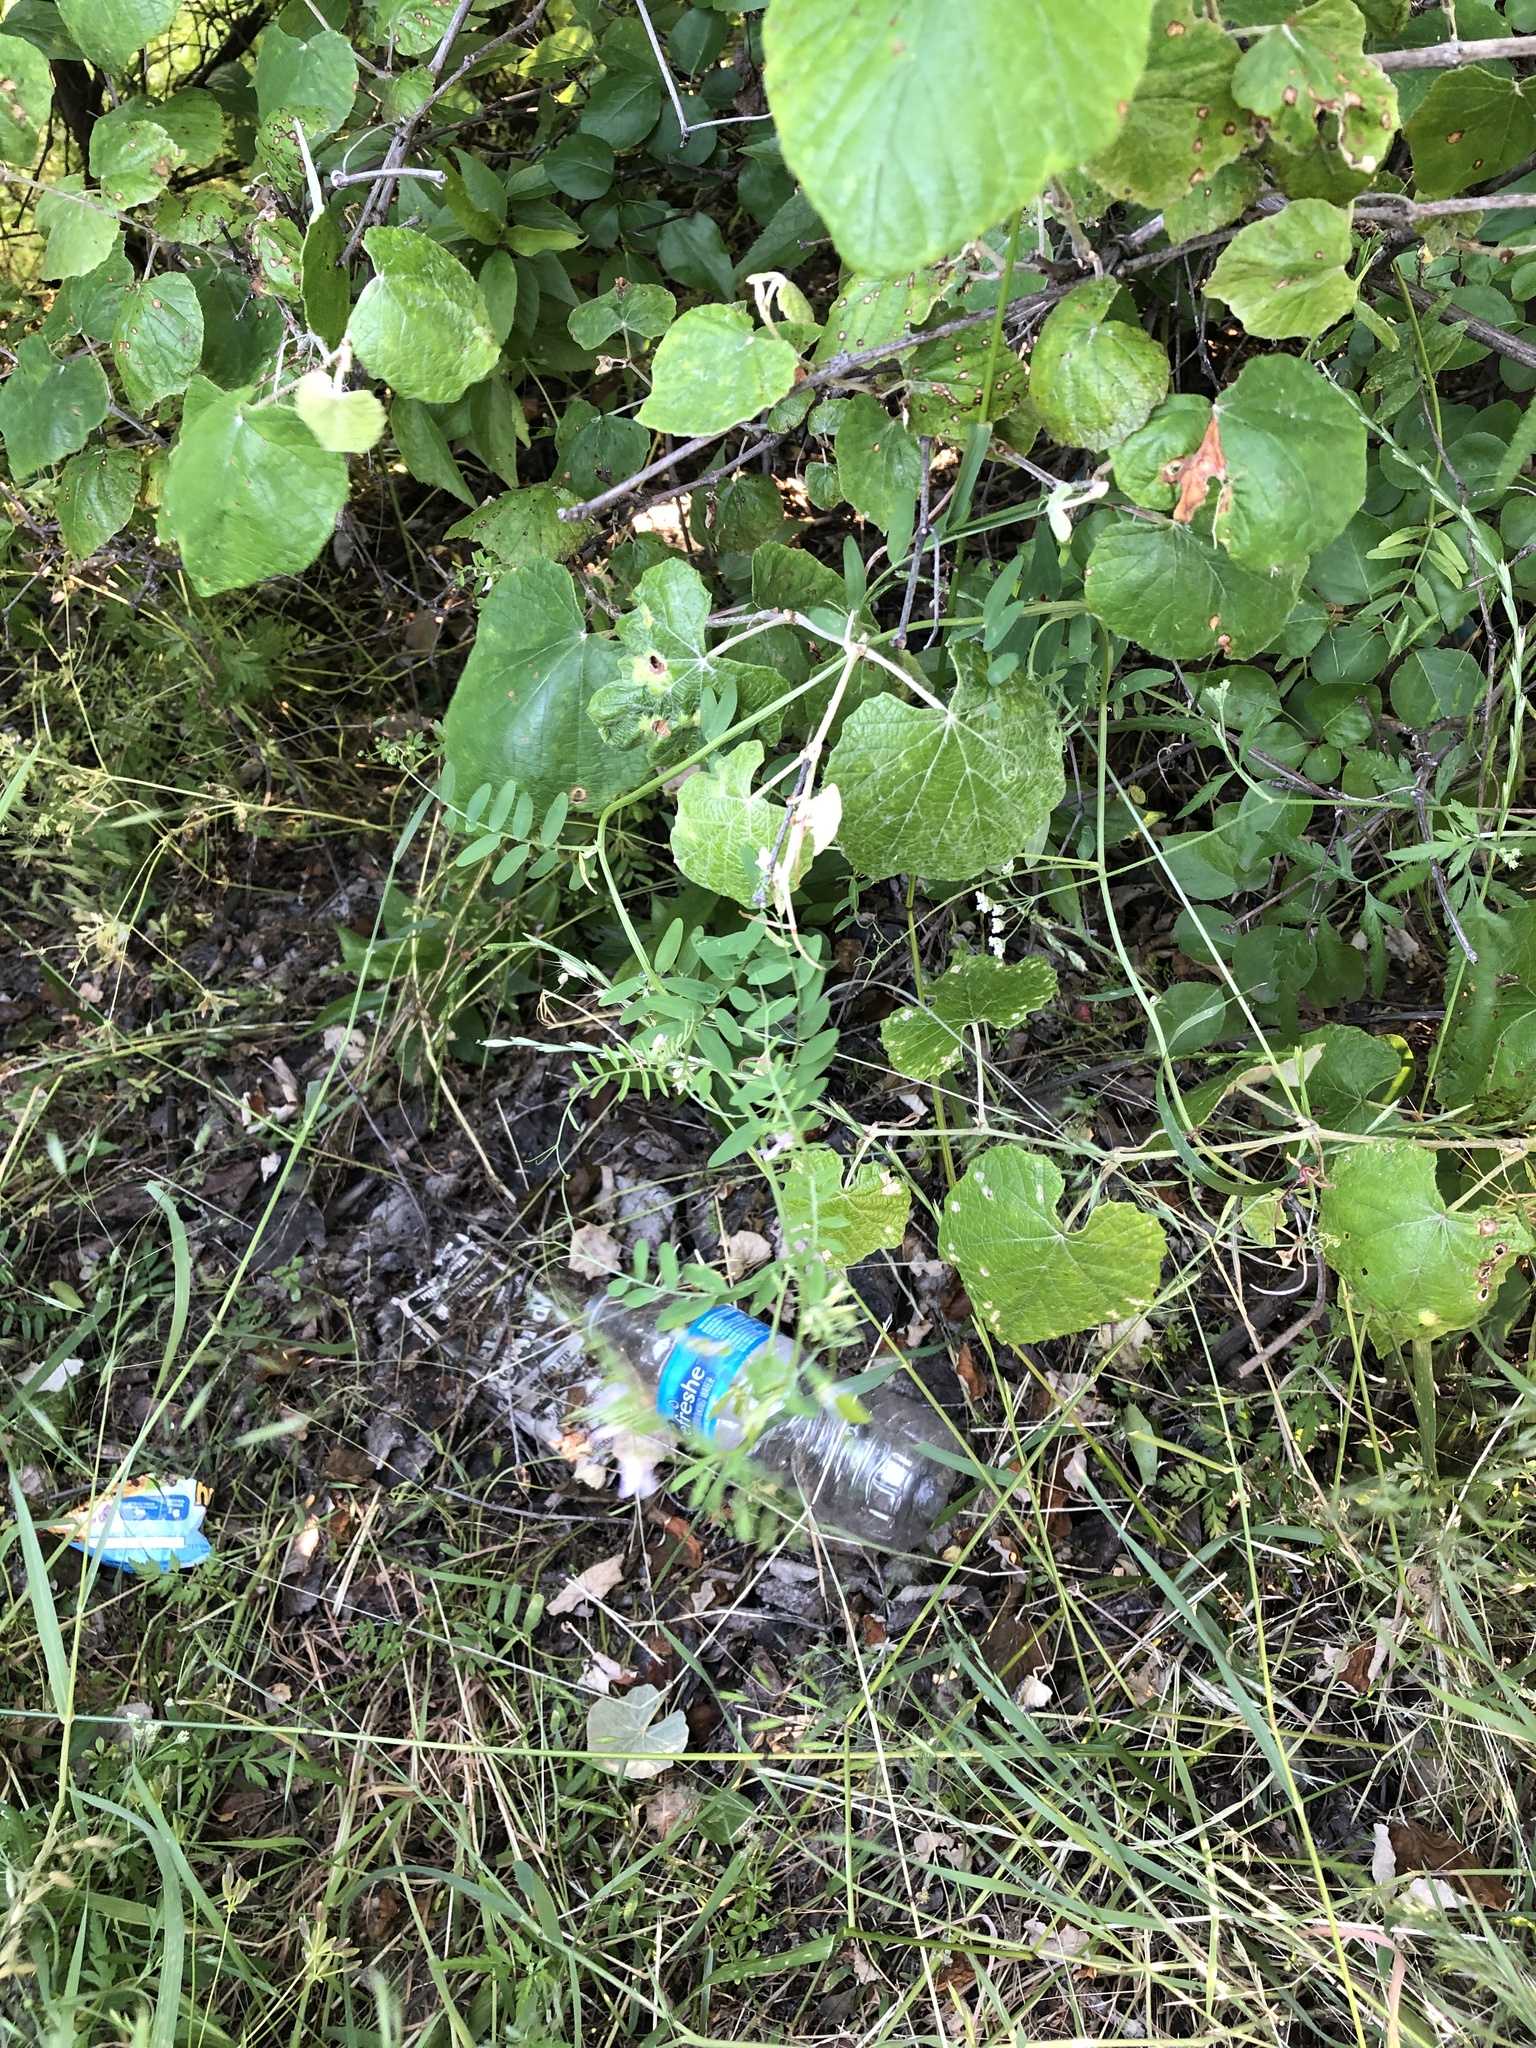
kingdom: Plantae
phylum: Tracheophyta
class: Magnoliopsida
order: Fabales
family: Fabaceae
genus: Vicia
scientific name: Vicia ludoviciana
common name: Louisiana vetch
